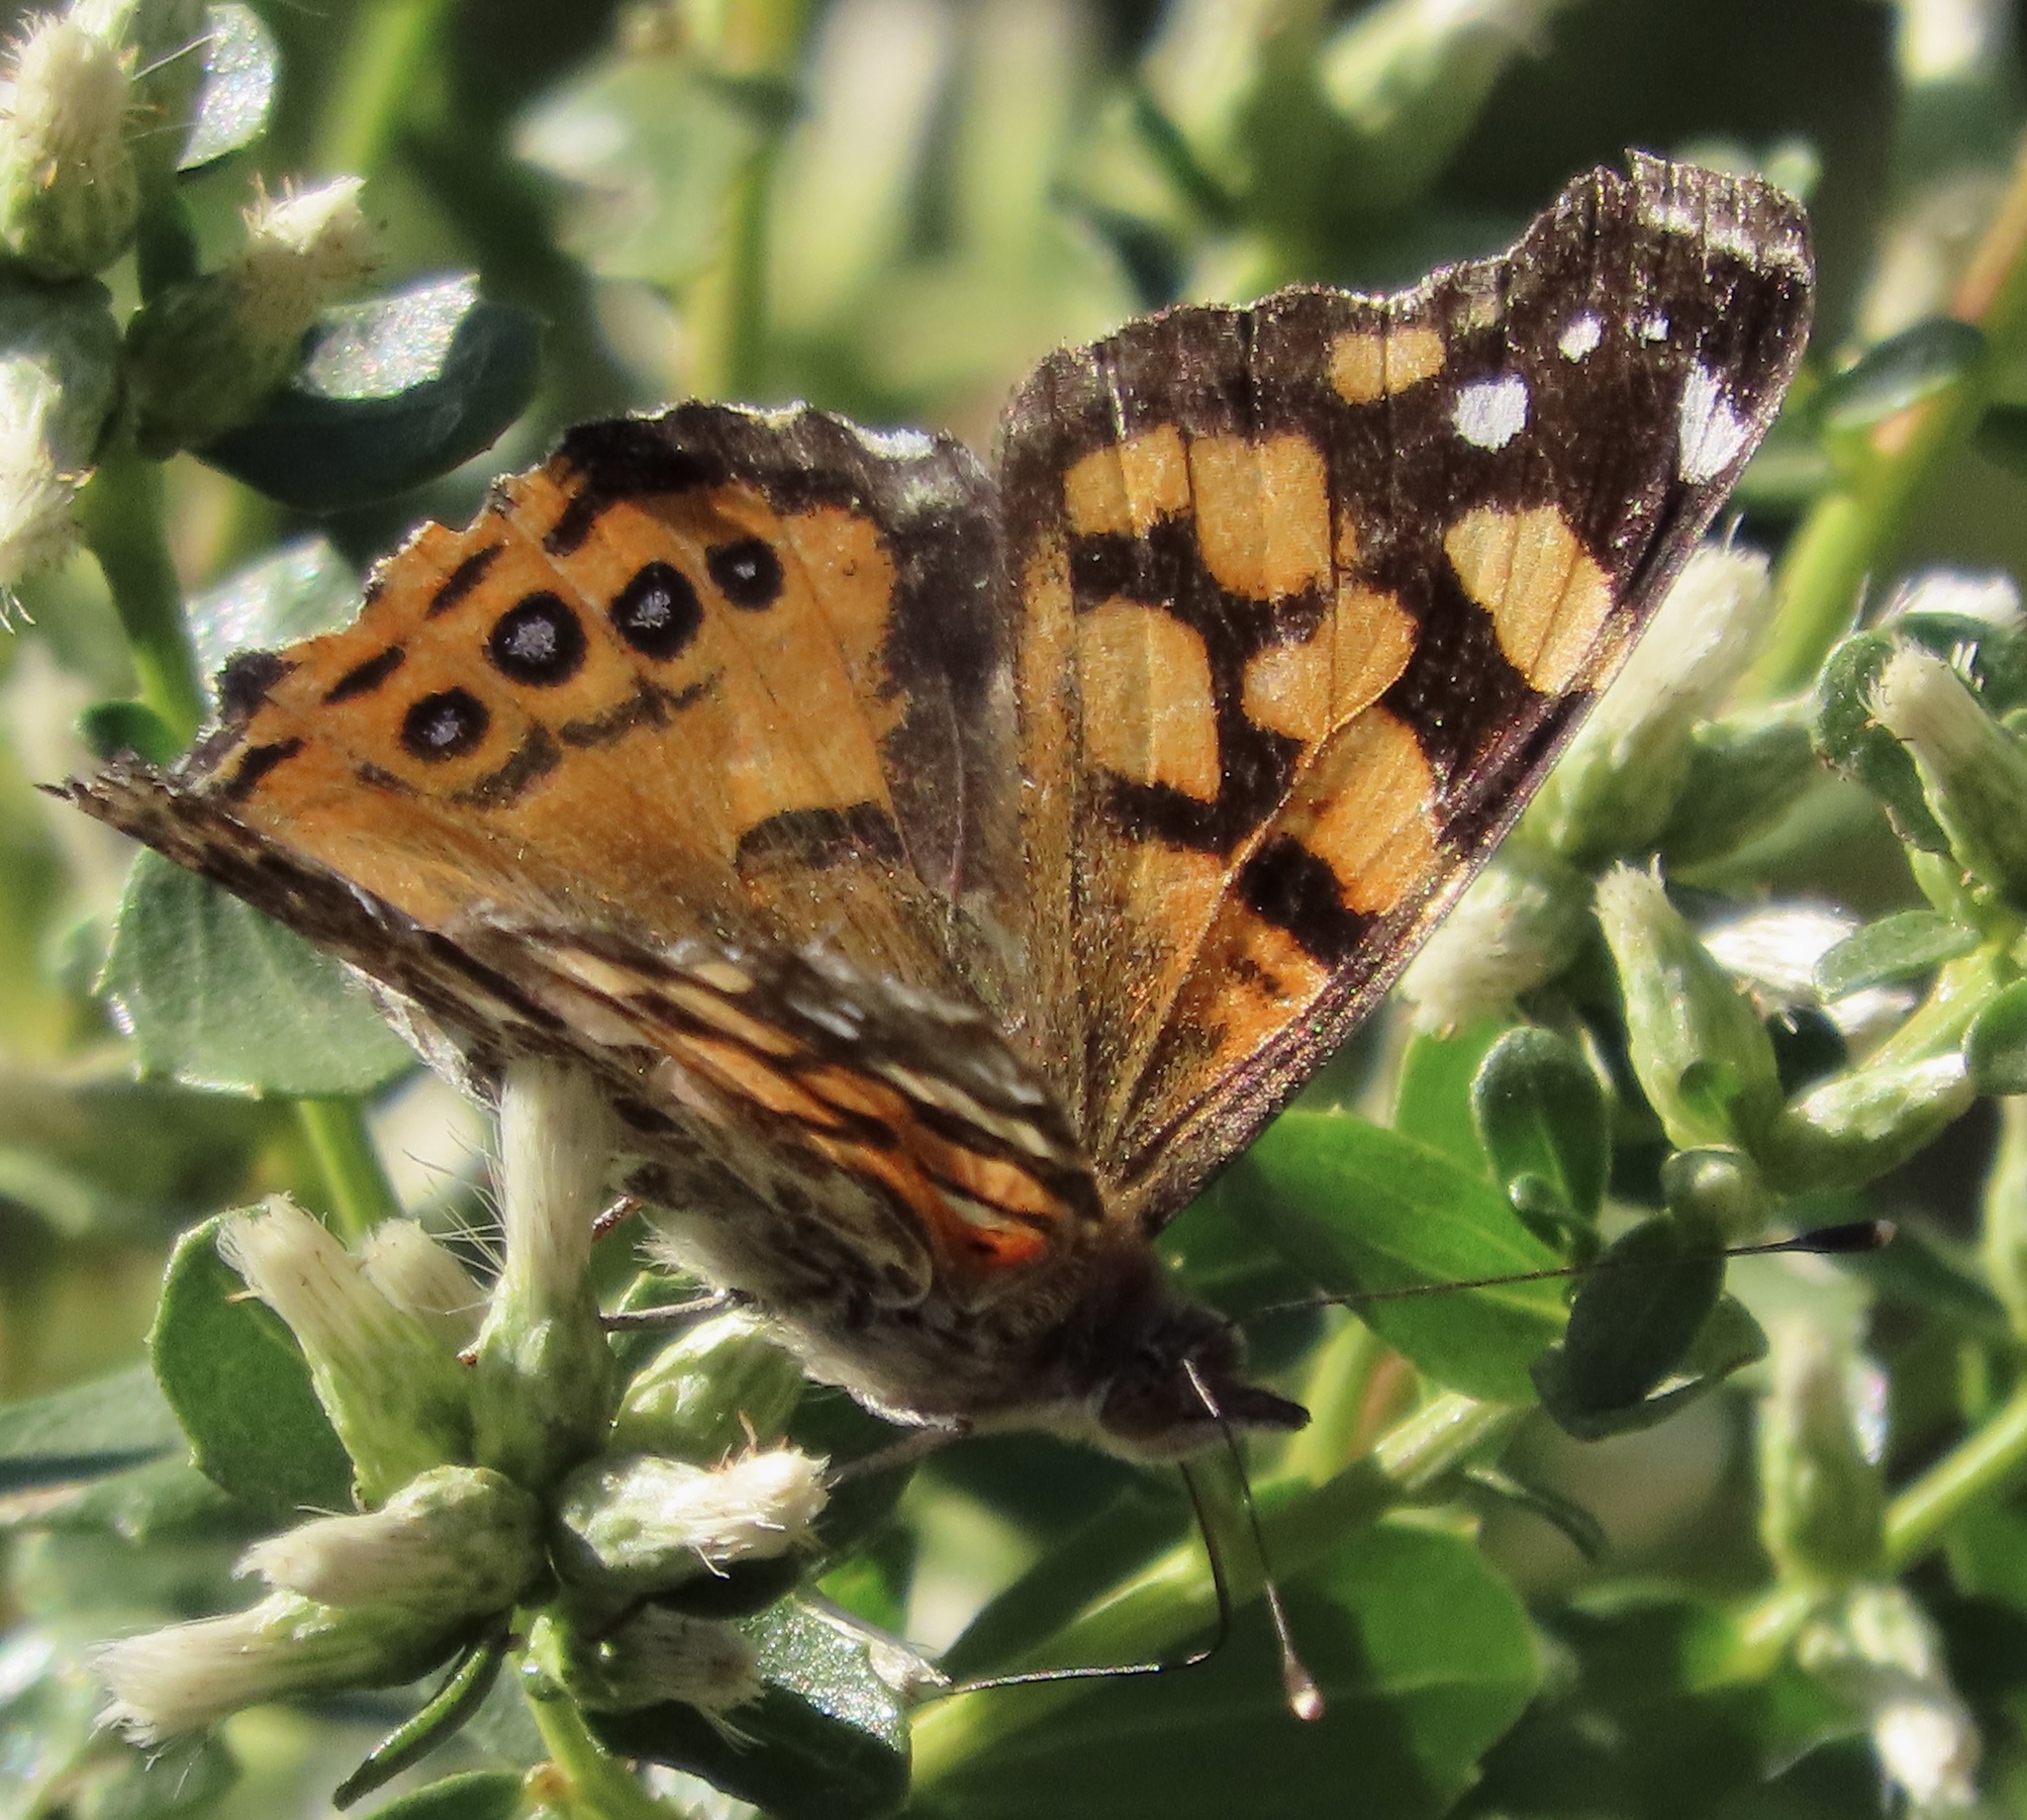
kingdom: Animalia
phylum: Arthropoda
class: Insecta
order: Lepidoptera
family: Nymphalidae
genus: Vanessa
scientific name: Vanessa annabella
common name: West coast lady
